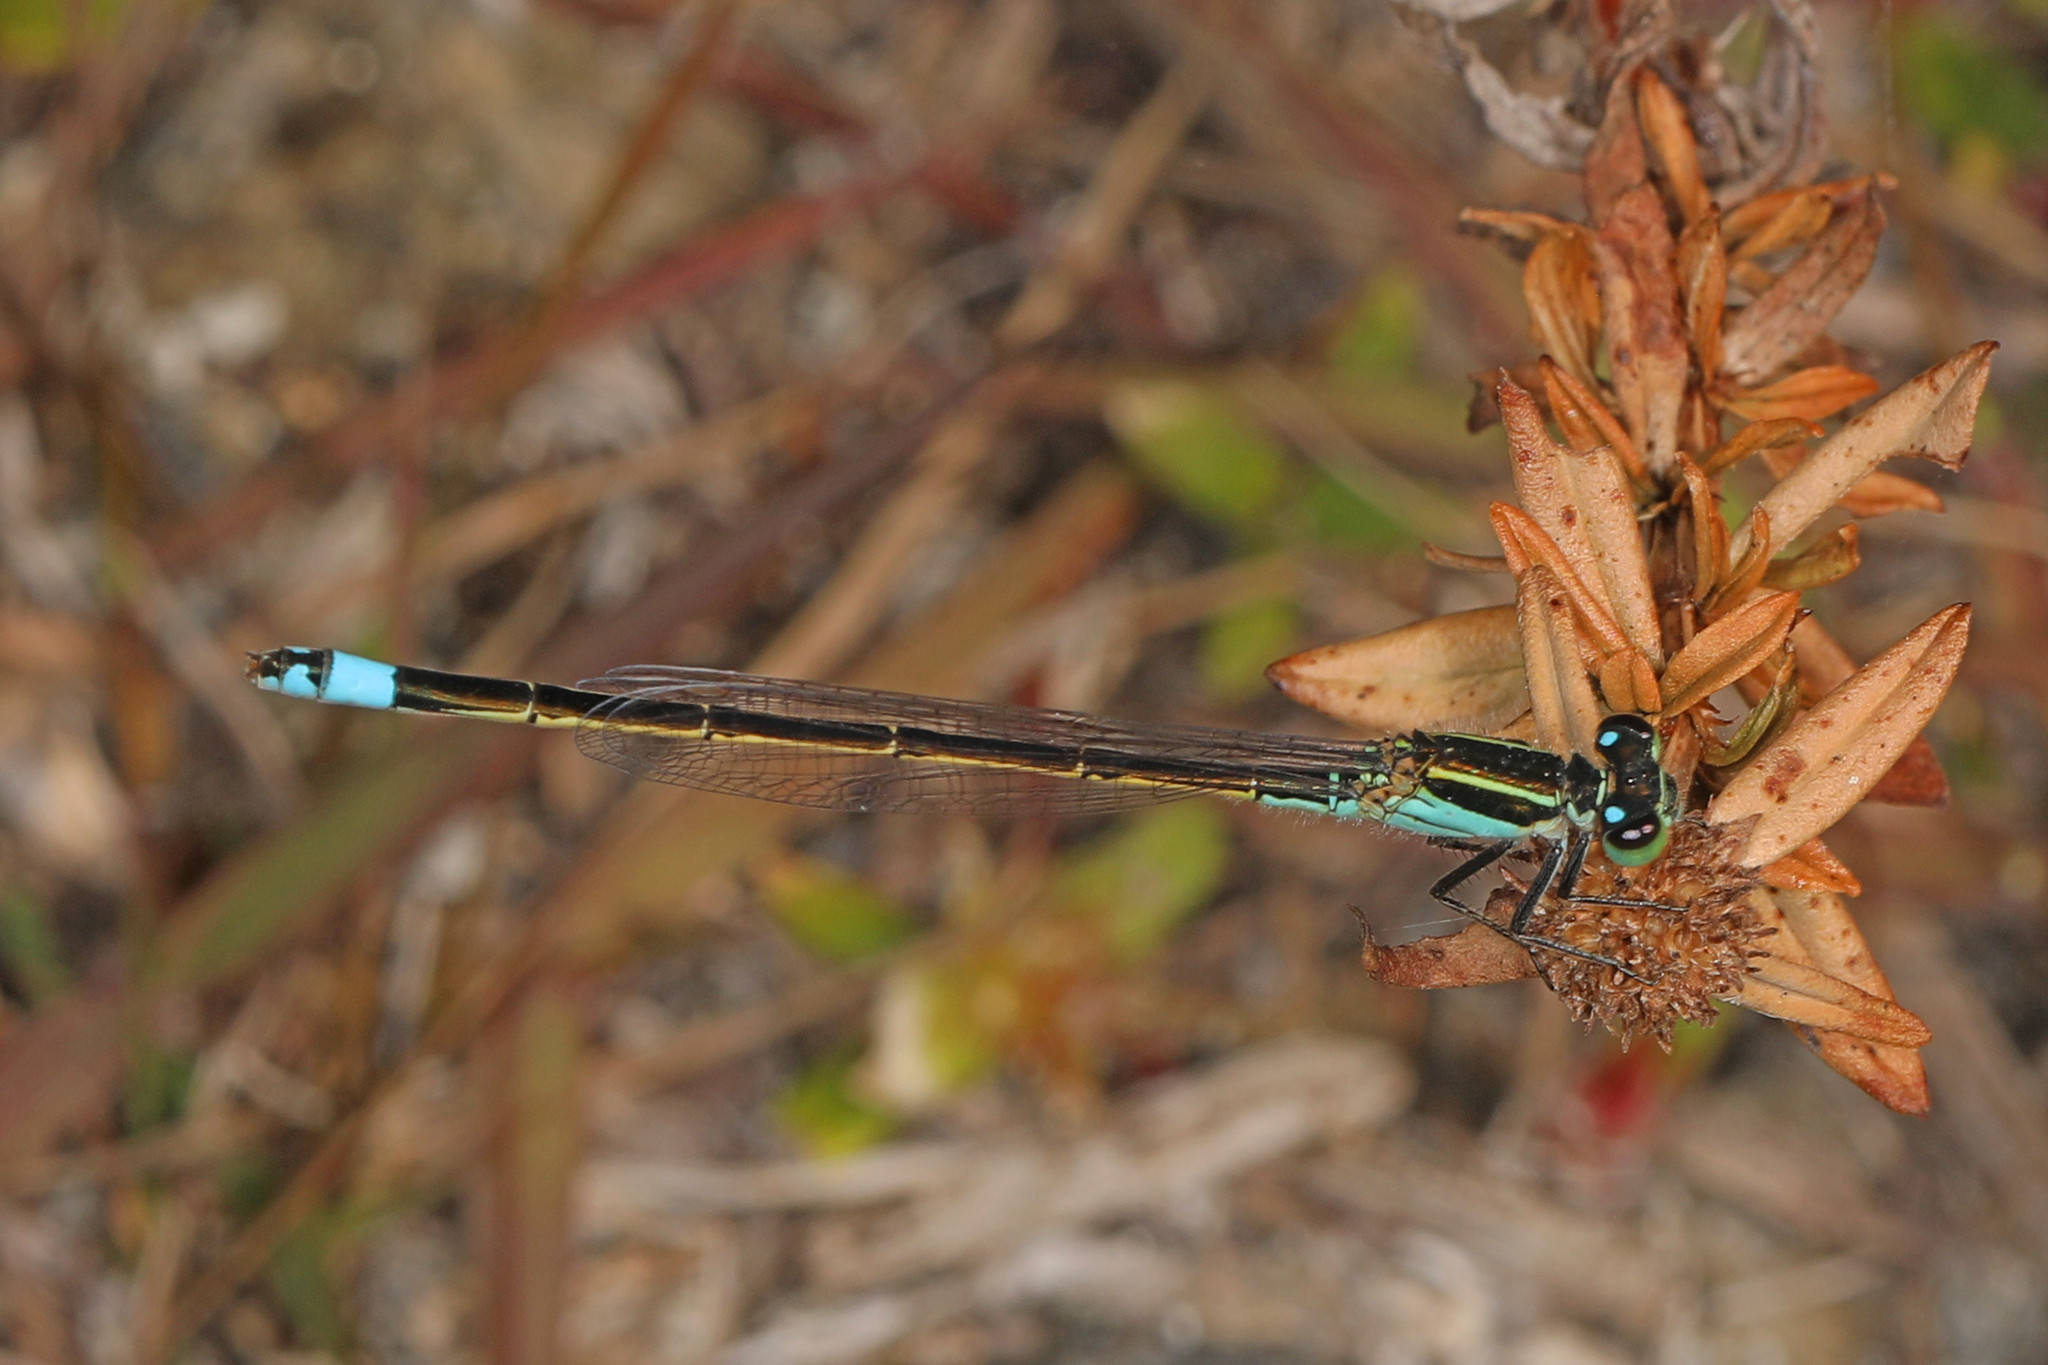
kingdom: Animalia
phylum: Arthropoda
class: Insecta
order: Odonata
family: Coenagrionidae
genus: Ischnura
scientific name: Ischnura ramburii
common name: Rambur's forktail
